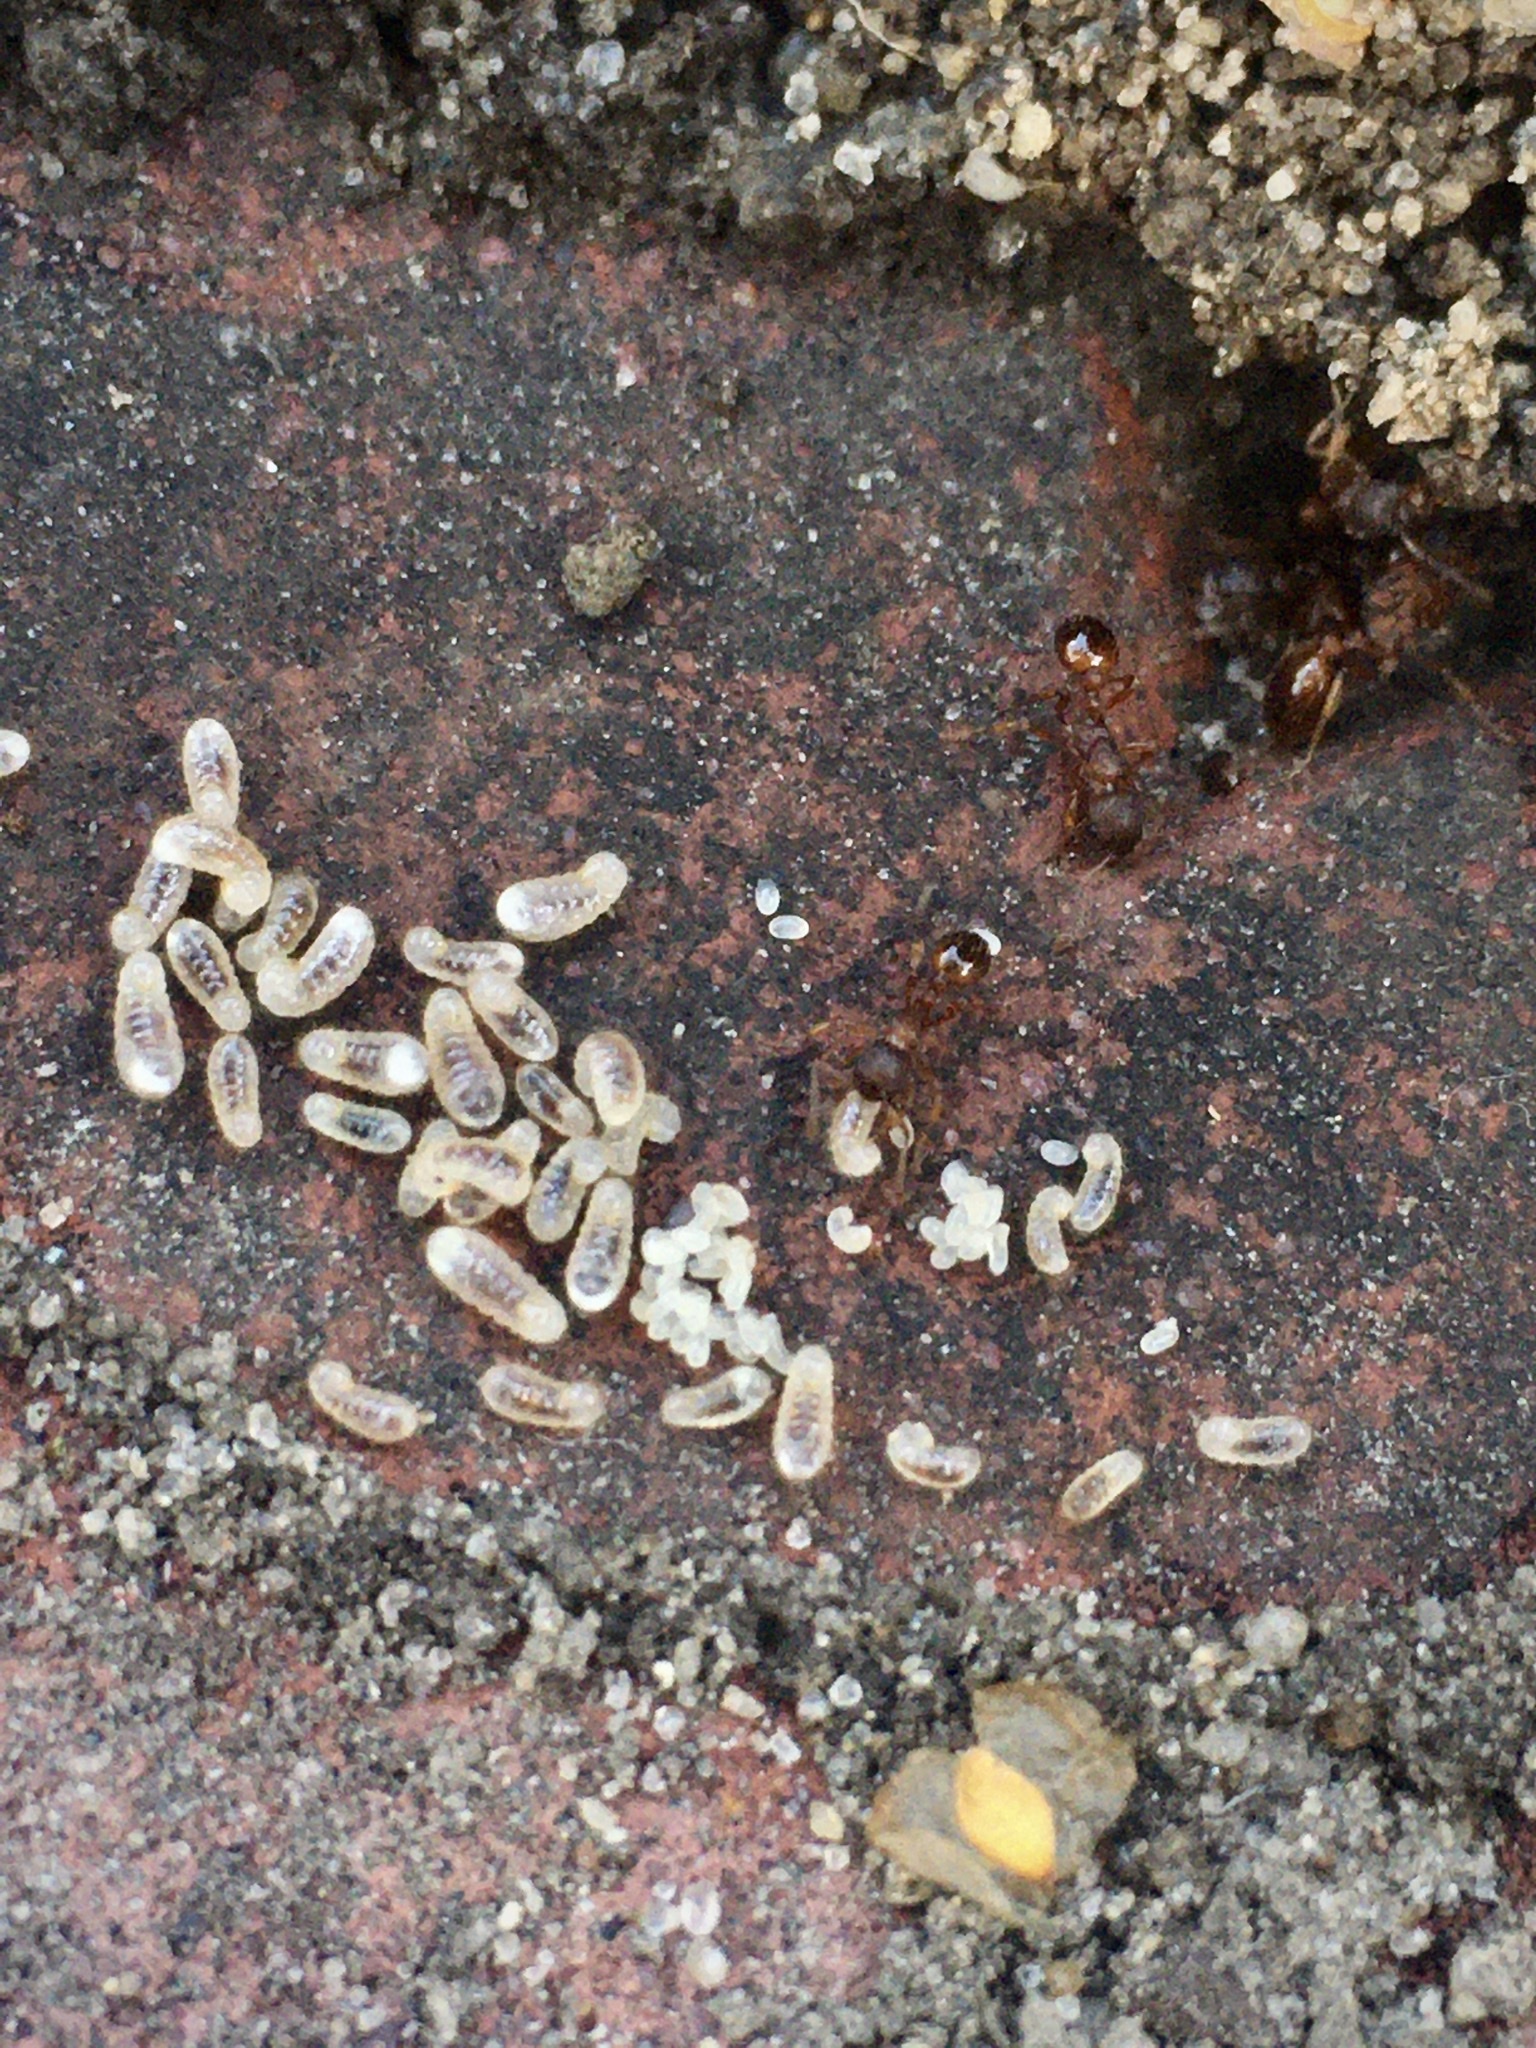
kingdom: Animalia
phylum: Arthropoda
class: Insecta
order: Hymenoptera
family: Formicidae
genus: Myrmica
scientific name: Myrmica rubra
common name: European fire ant
